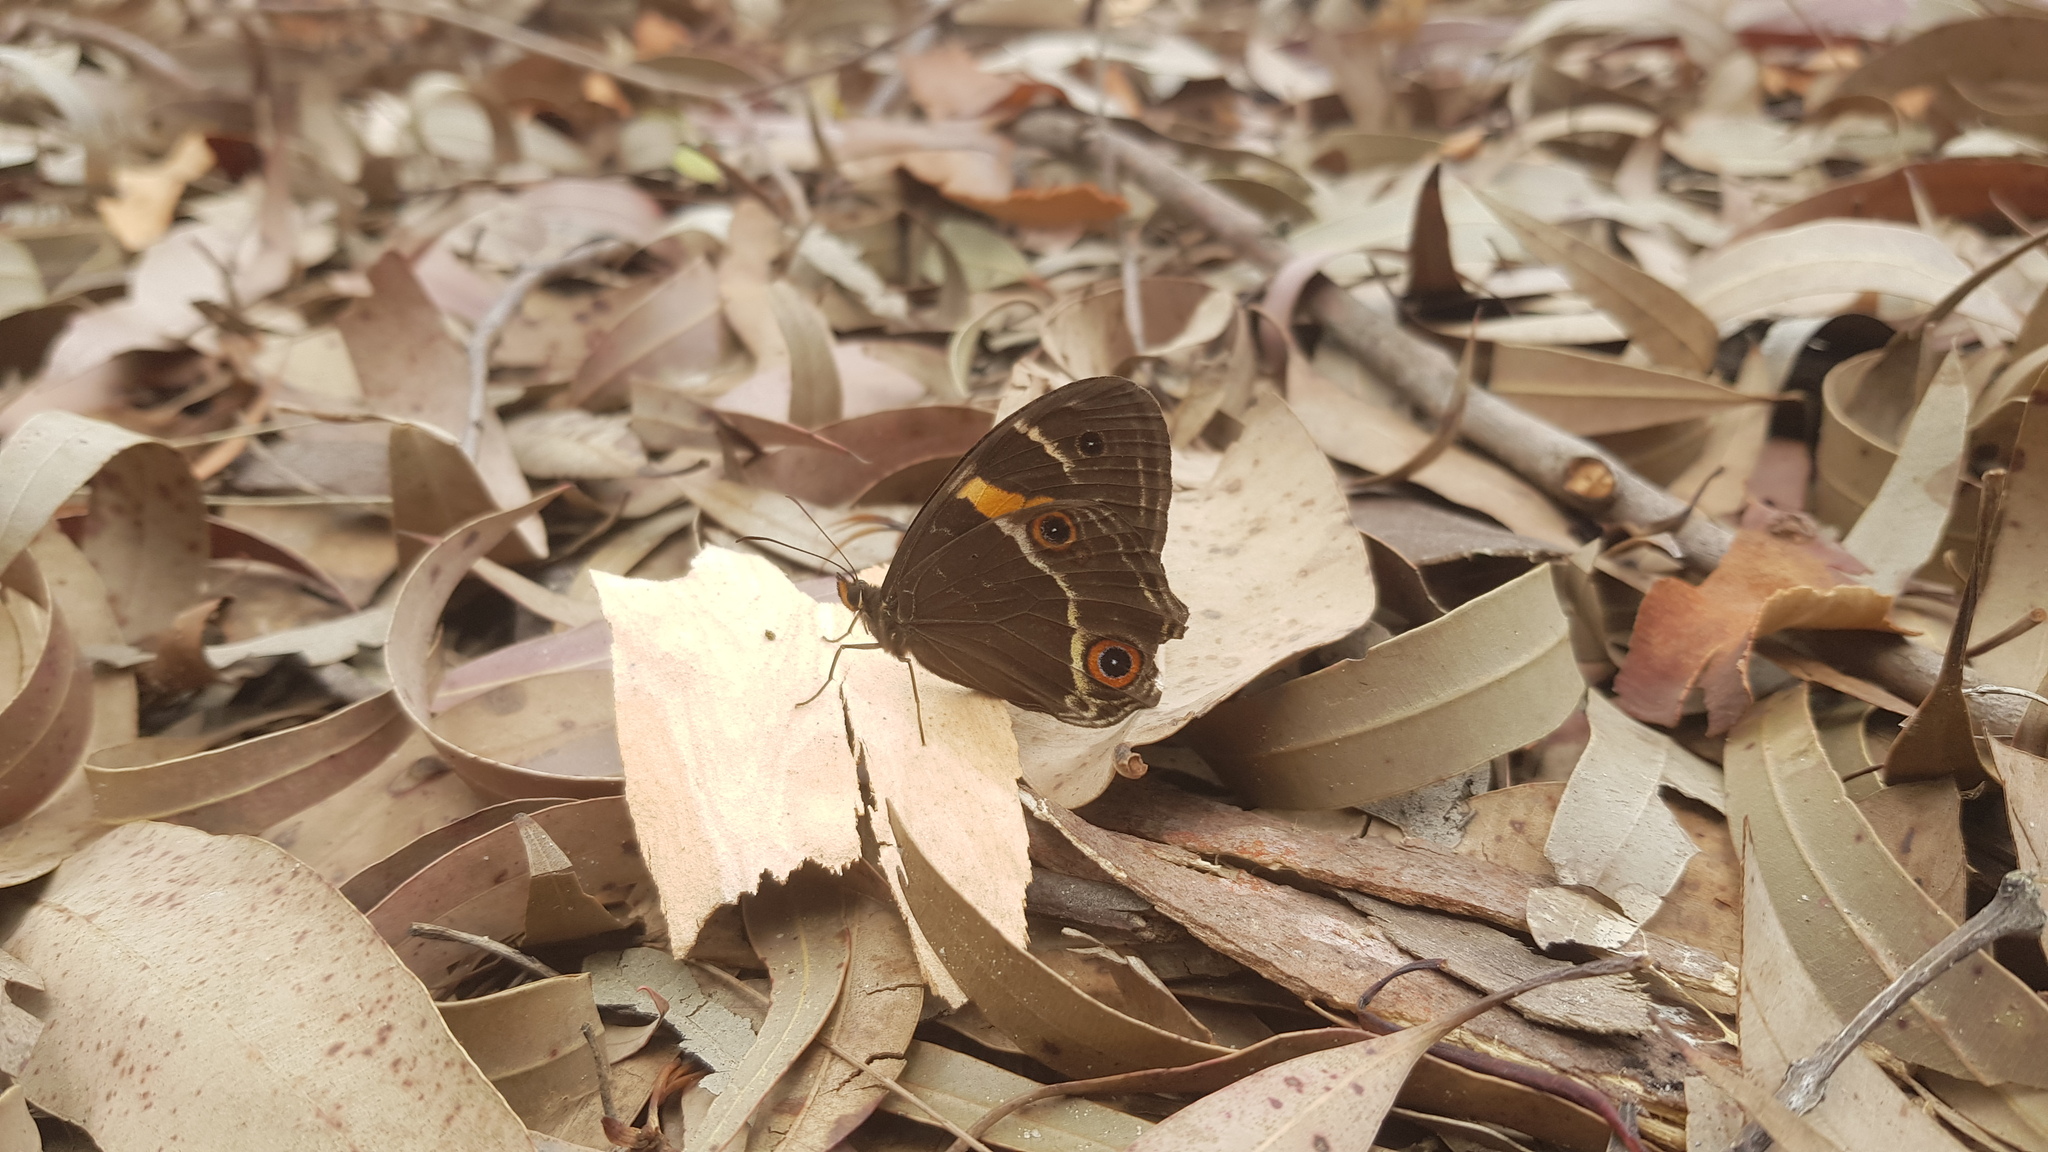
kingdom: Animalia
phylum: Arthropoda
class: Insecta
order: Lepidoptera
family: Nymphalidae
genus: Tisiphone
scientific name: Tisiphone abeona
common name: Swordgrass brown
